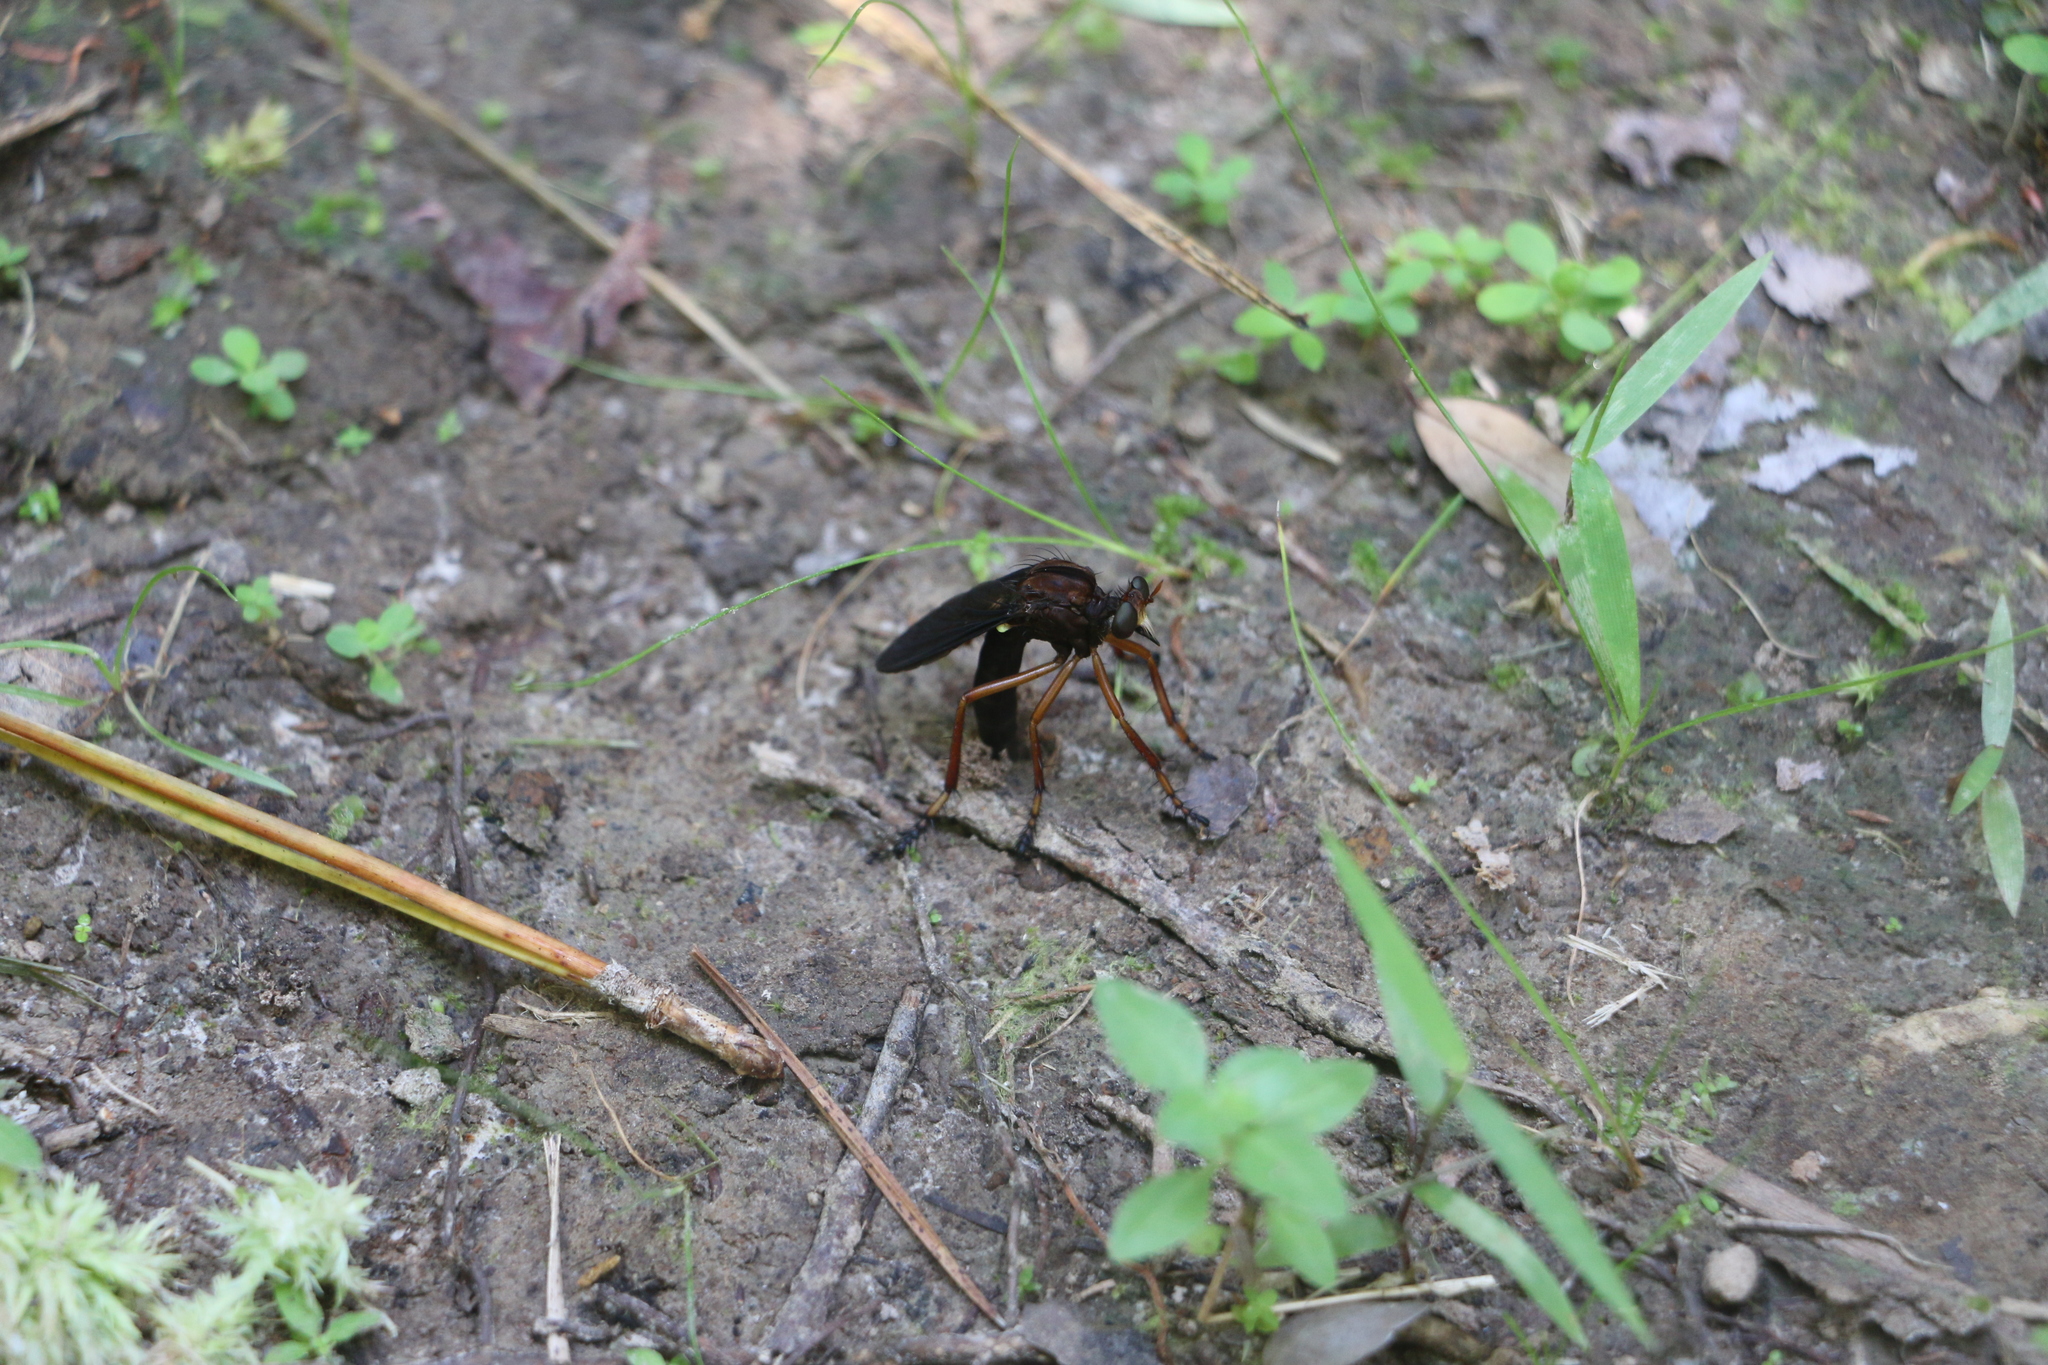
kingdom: Animalia
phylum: Arthropoda
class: Insecta
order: Diptera
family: Asilidae
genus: Diogmites
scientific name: Diogmites platypterus
